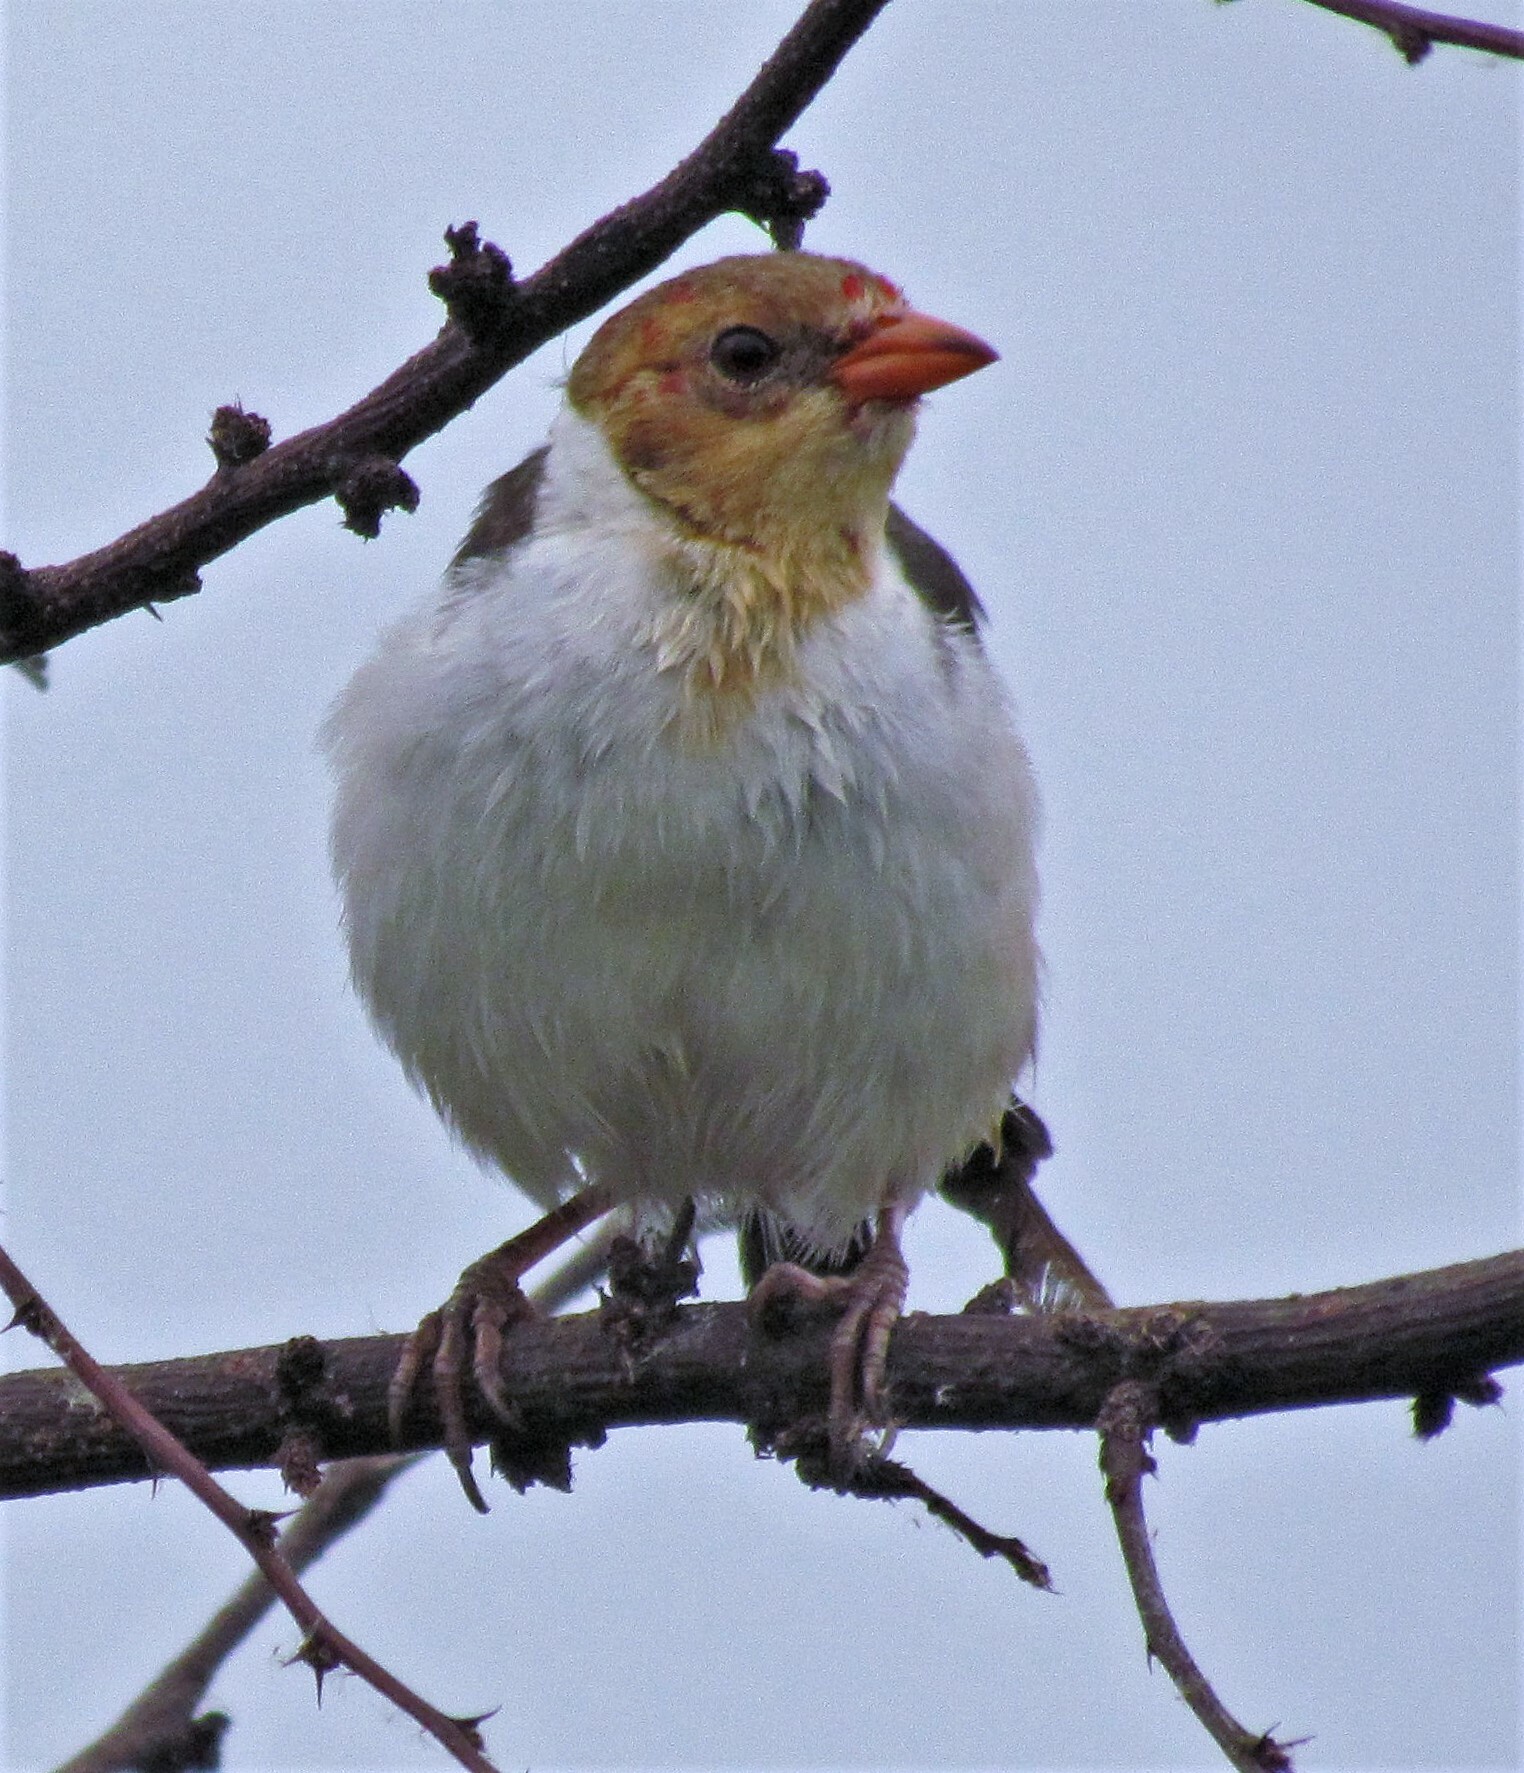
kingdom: Animalia
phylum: Chordata
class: Aves
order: Passeriformes
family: Thraupidae
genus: Paroaria
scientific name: Paroaria capitata
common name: Yellow-billed cardinal
